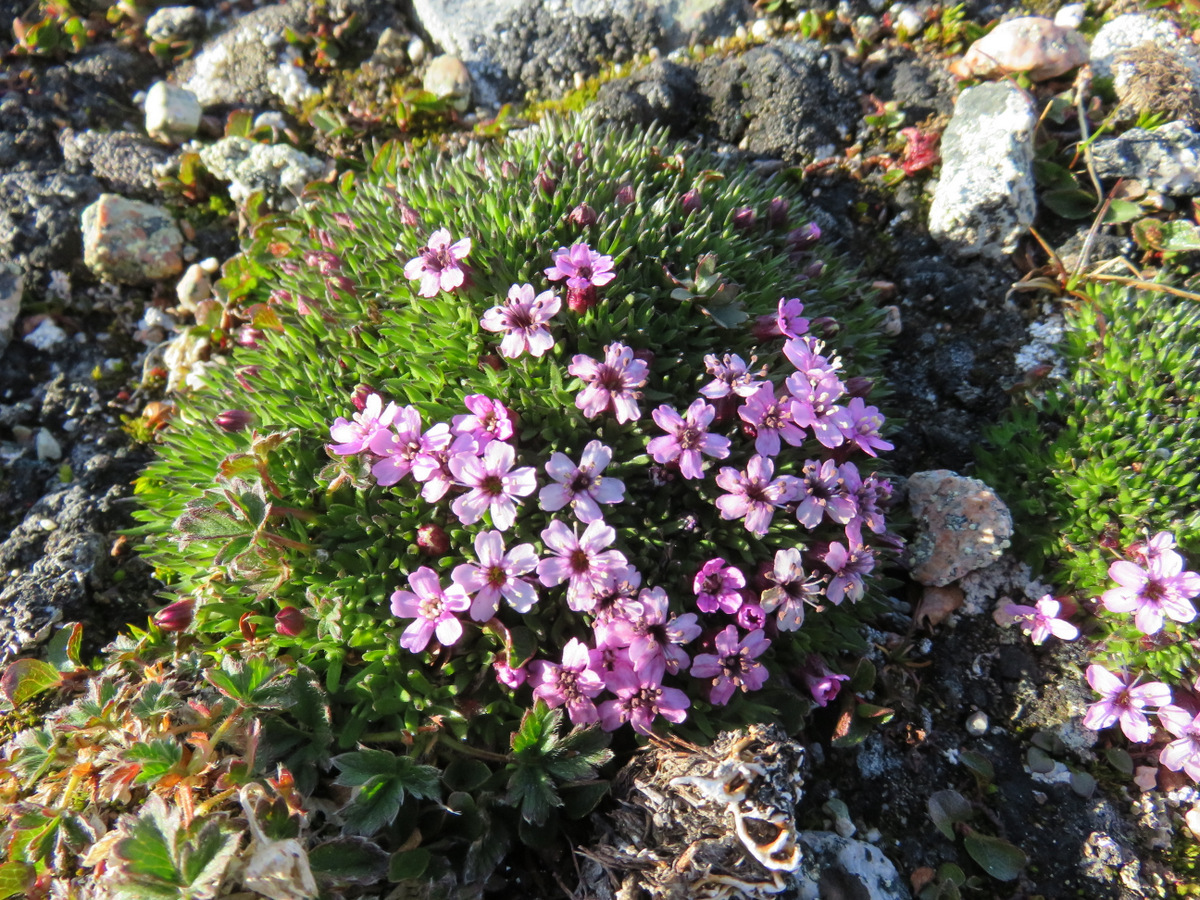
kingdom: Plantae
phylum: Tracheophyta
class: Magnoliopsida
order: Caryophyllales
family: Caryophyllaceae
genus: Silene
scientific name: Silene acaulis
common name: Moss campion
